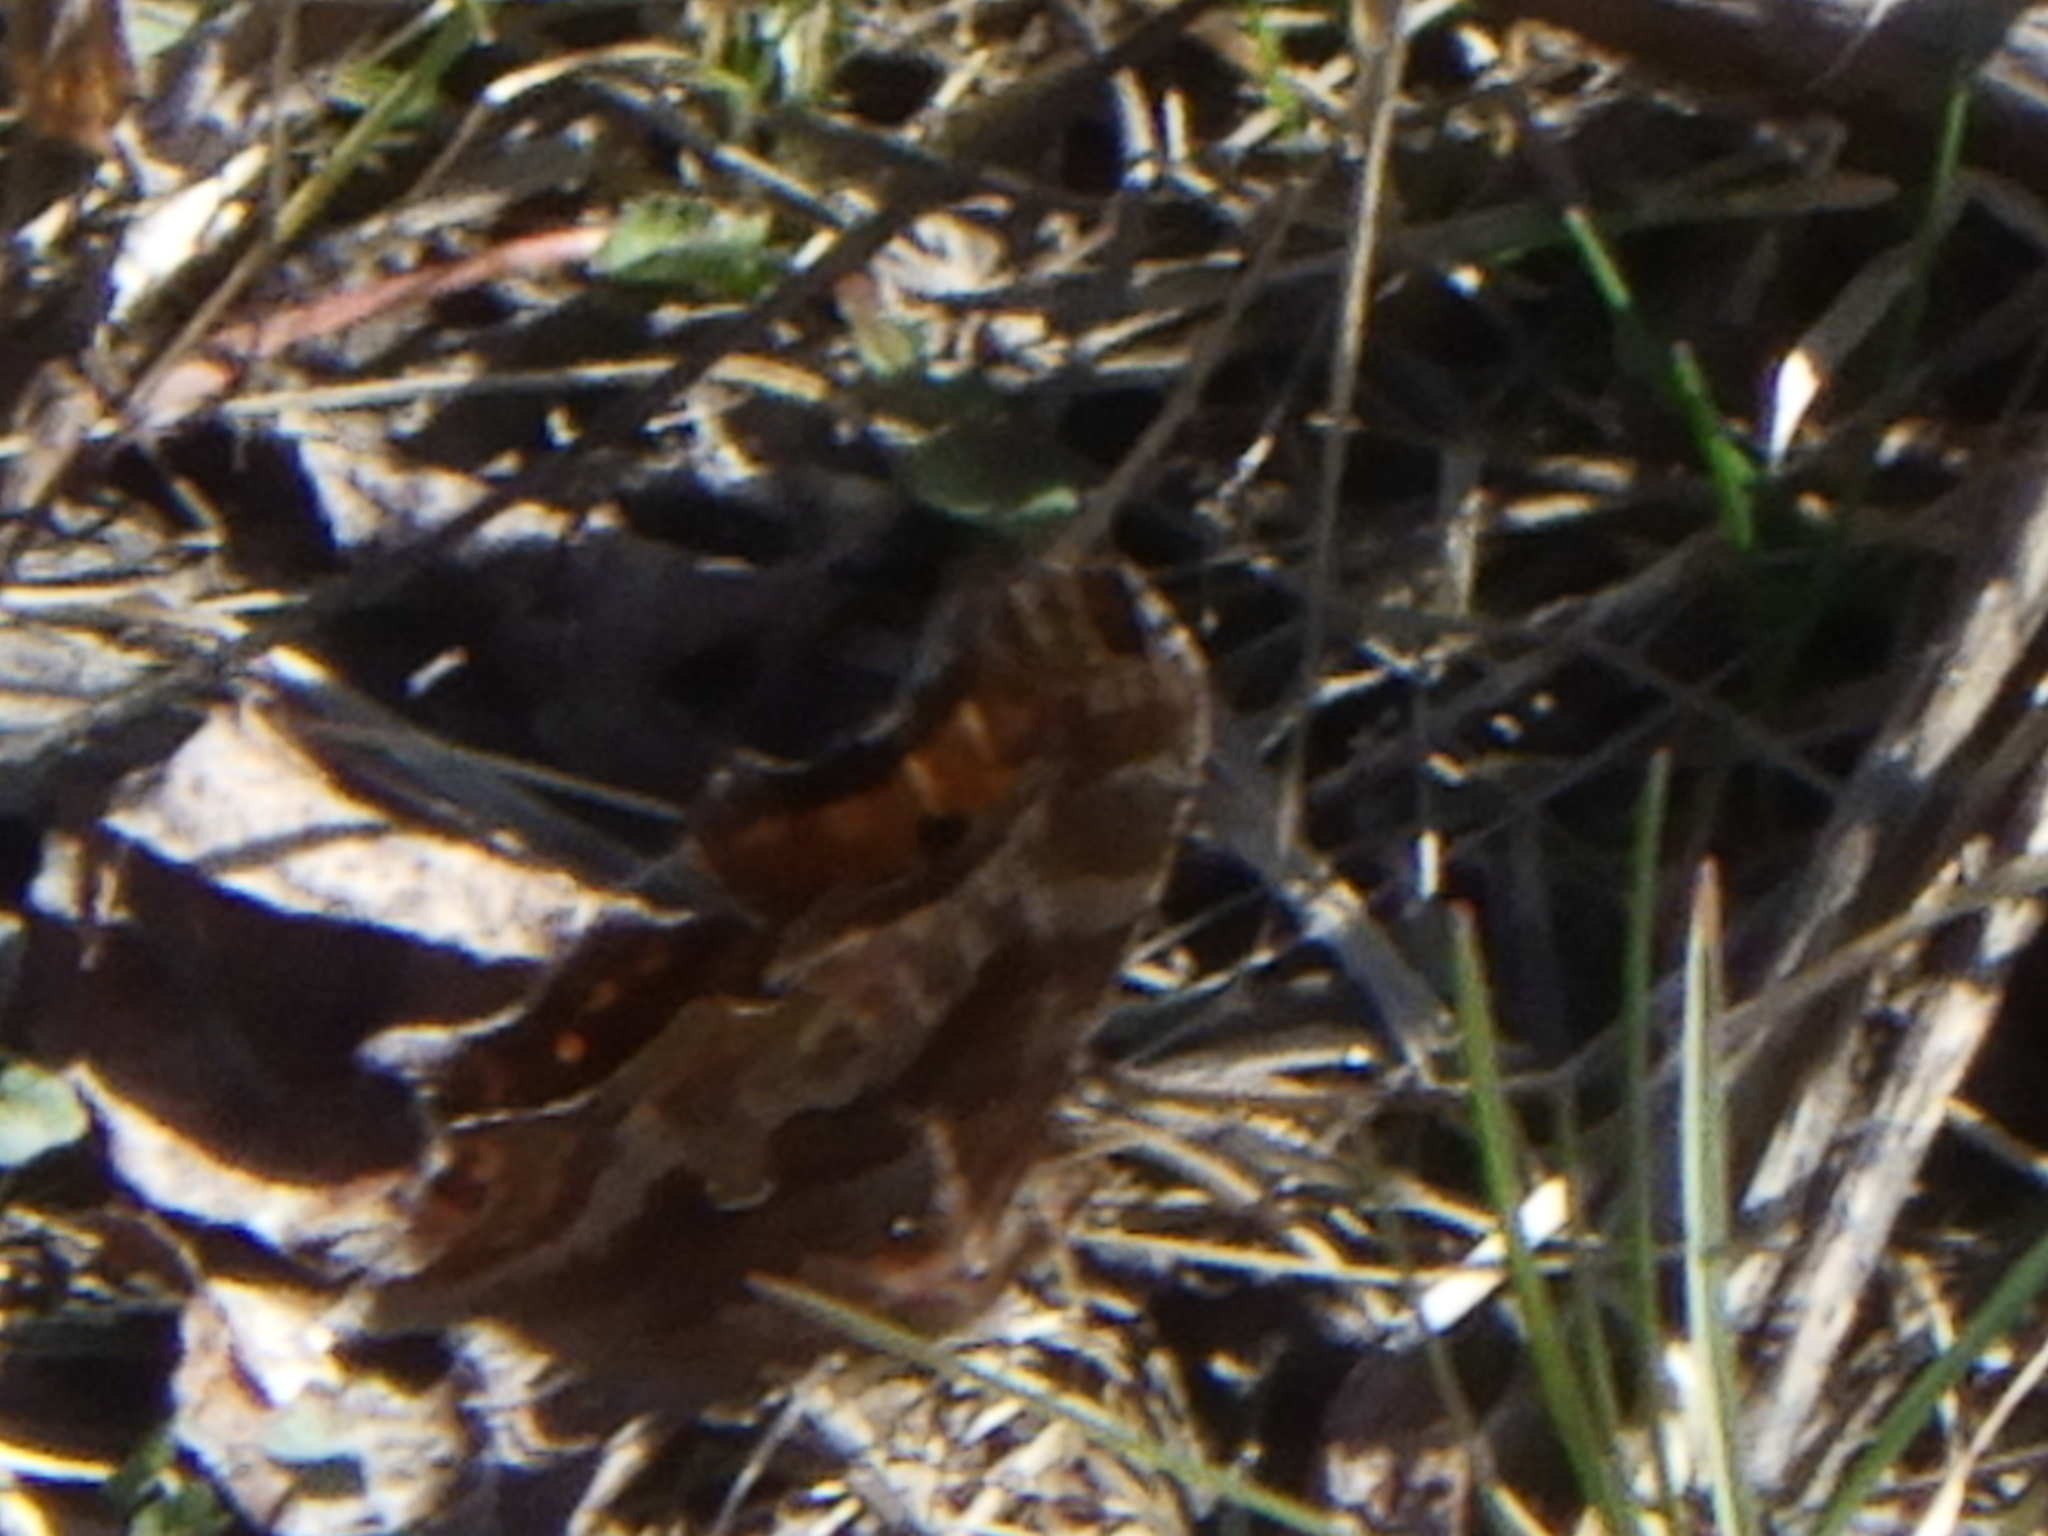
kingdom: Animalia
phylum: Arthropoda
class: Insecta
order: Lepidoptera
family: Nymphalidae
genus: Polygonia
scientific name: Polygonia comma
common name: Eastern comma
